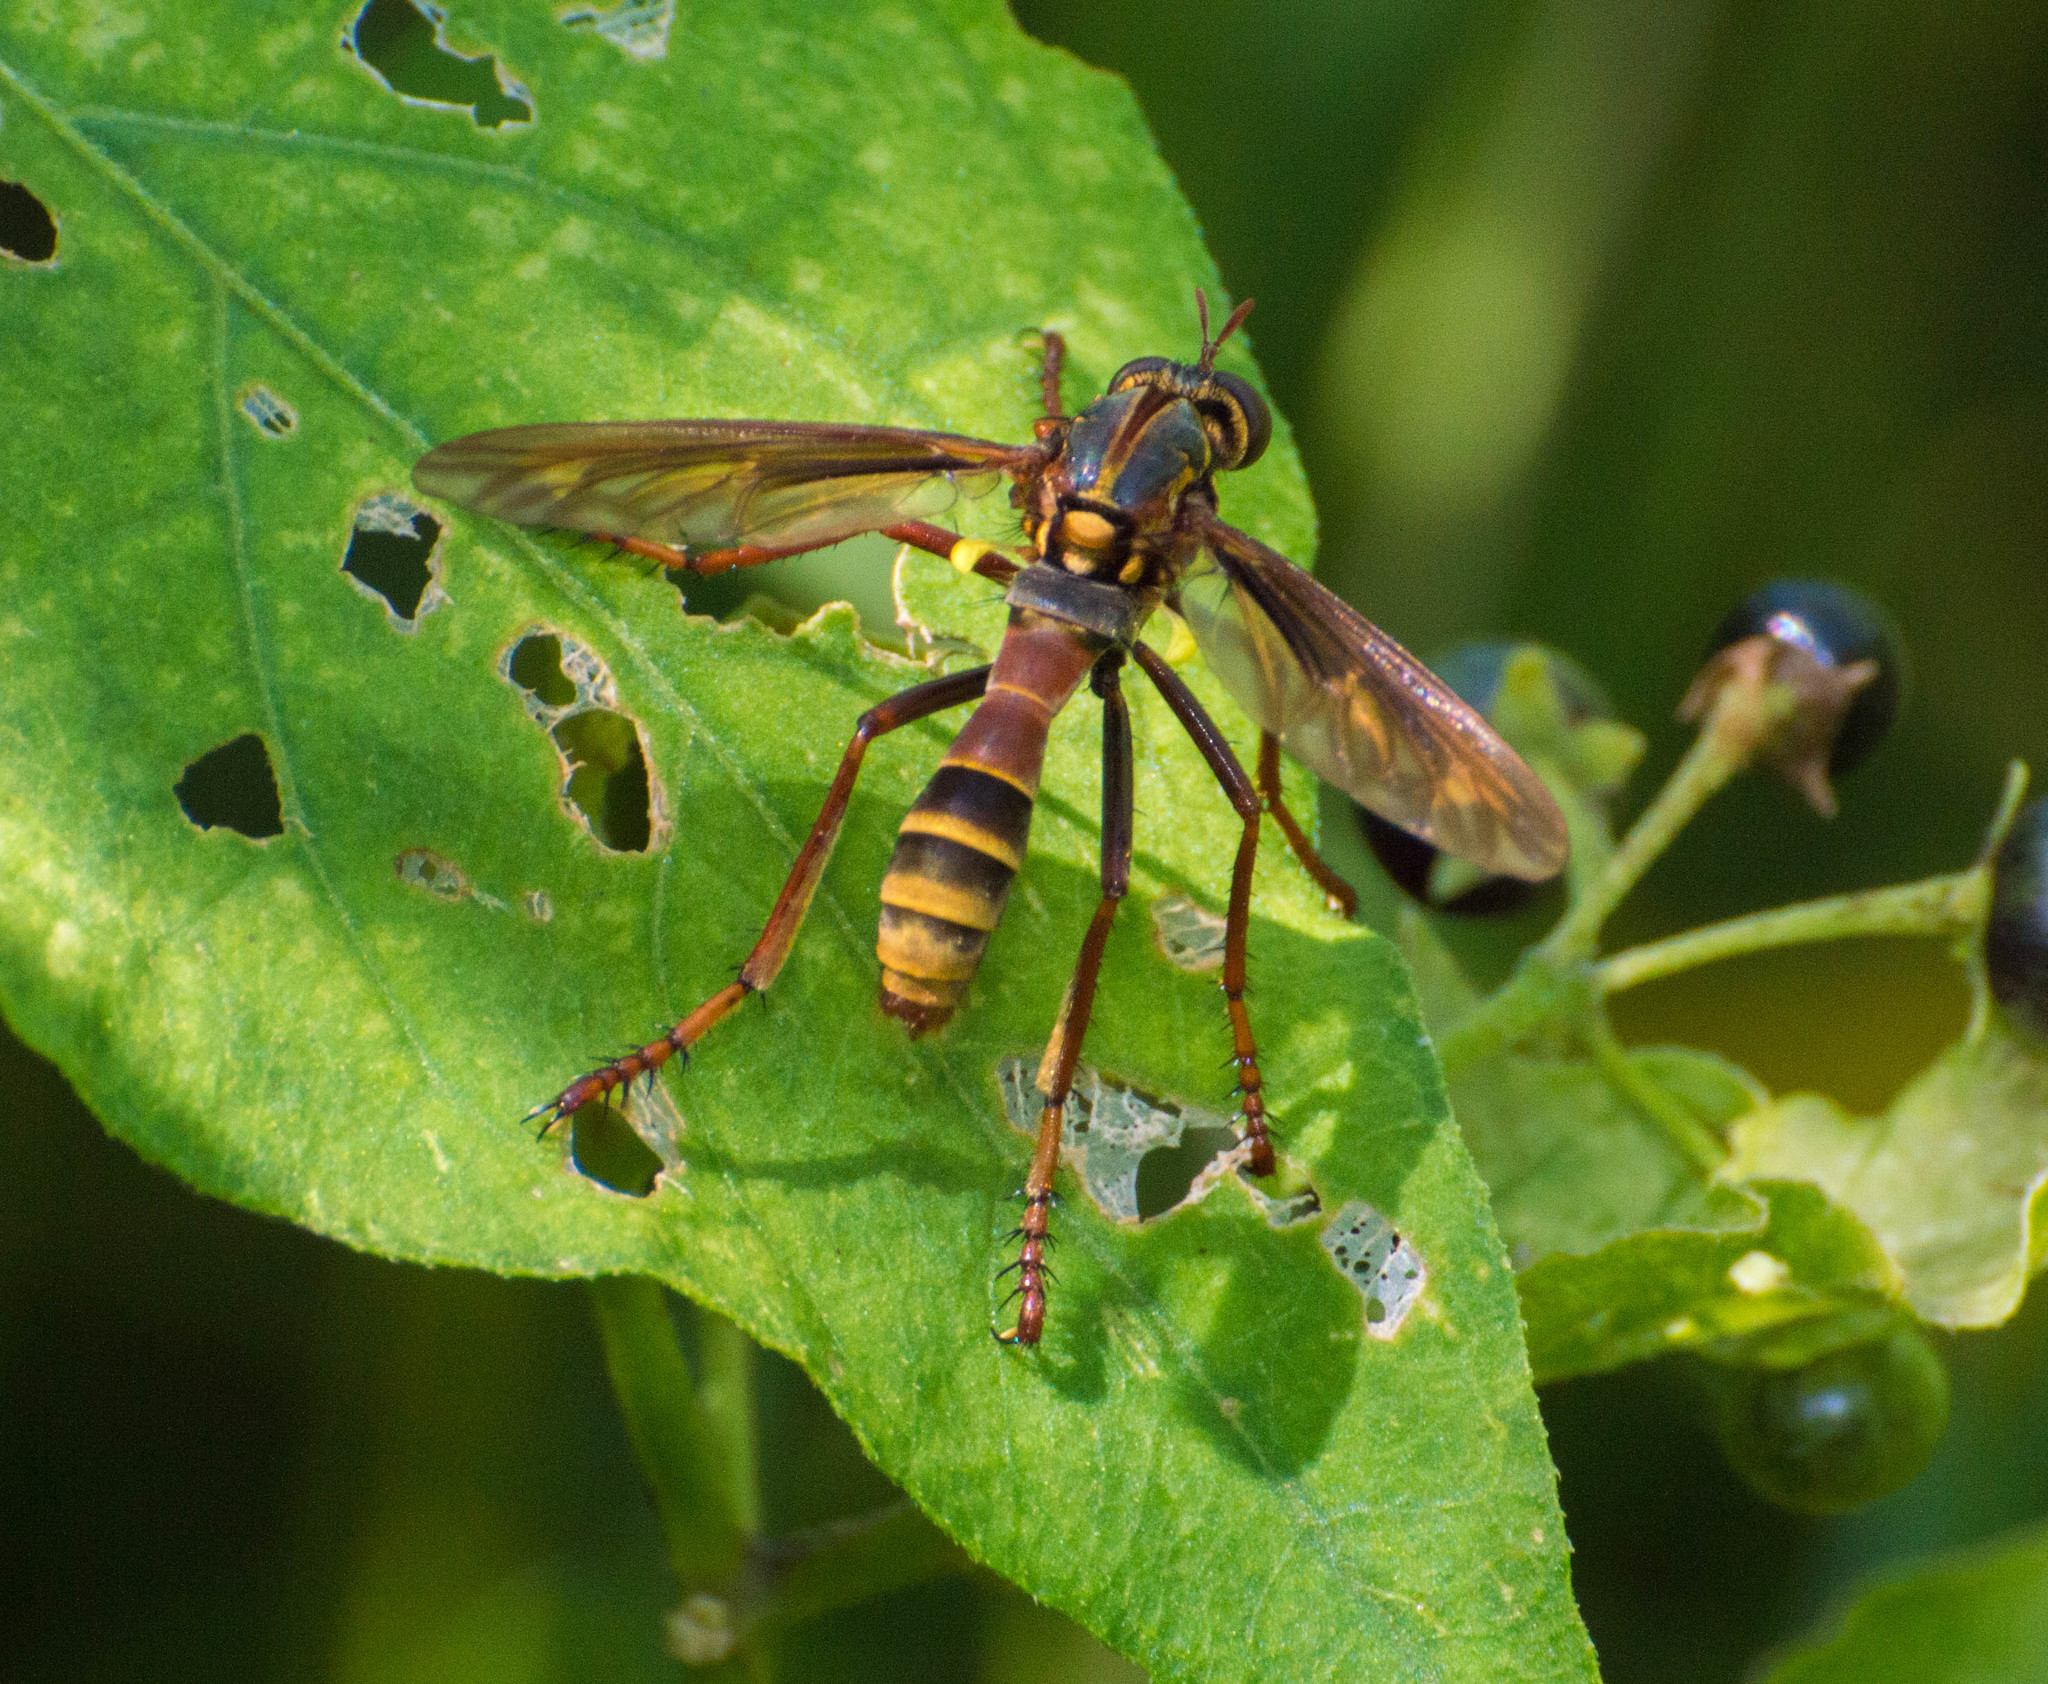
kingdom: Animalia
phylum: Arthropoda
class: Insecta
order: Diptera
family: Asilidae
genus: Blepharepium
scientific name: Blepharepium cajennense
